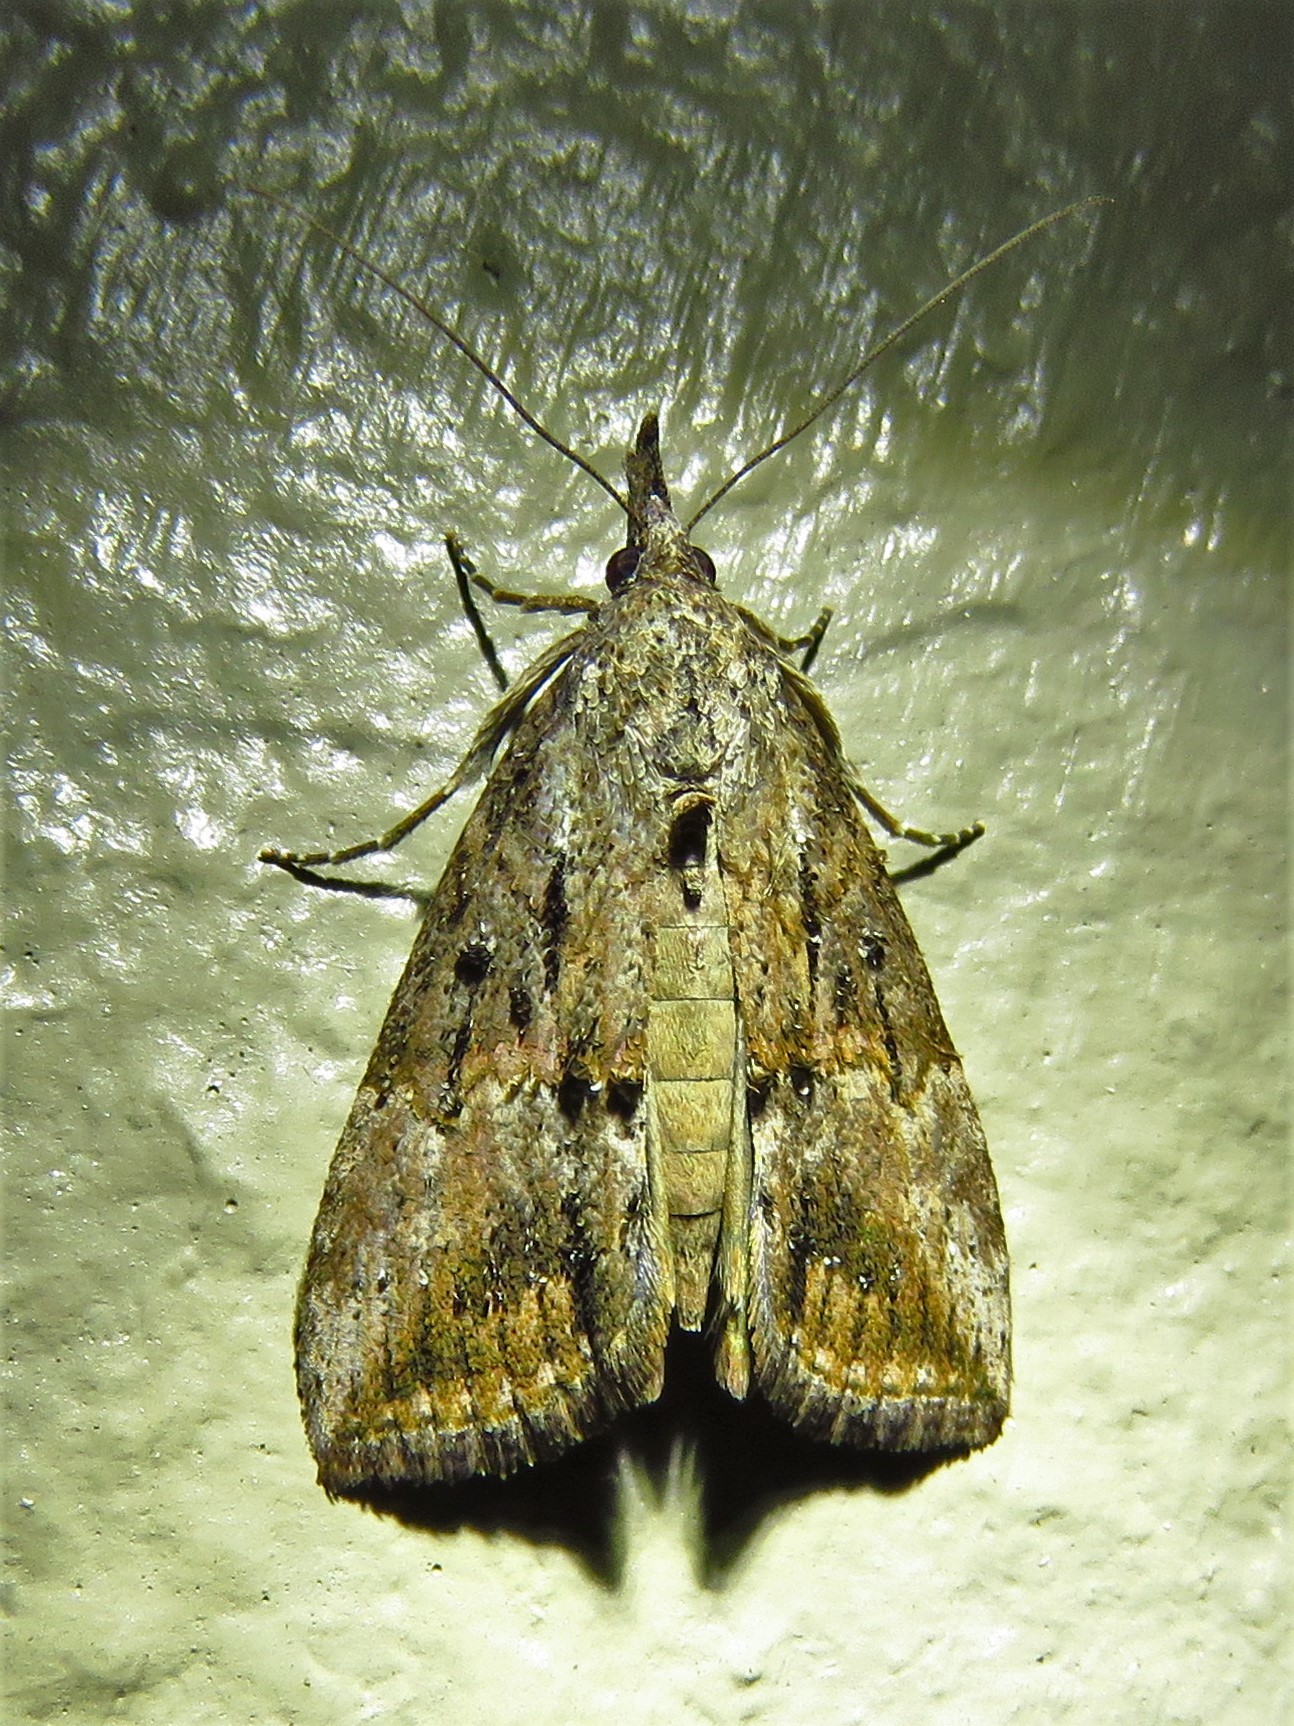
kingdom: Animalia
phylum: Arthropoda
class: Insecta
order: Lepidoptera
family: Erebidae
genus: Hypena
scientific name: Hypena scabra
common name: Green cloverworm
